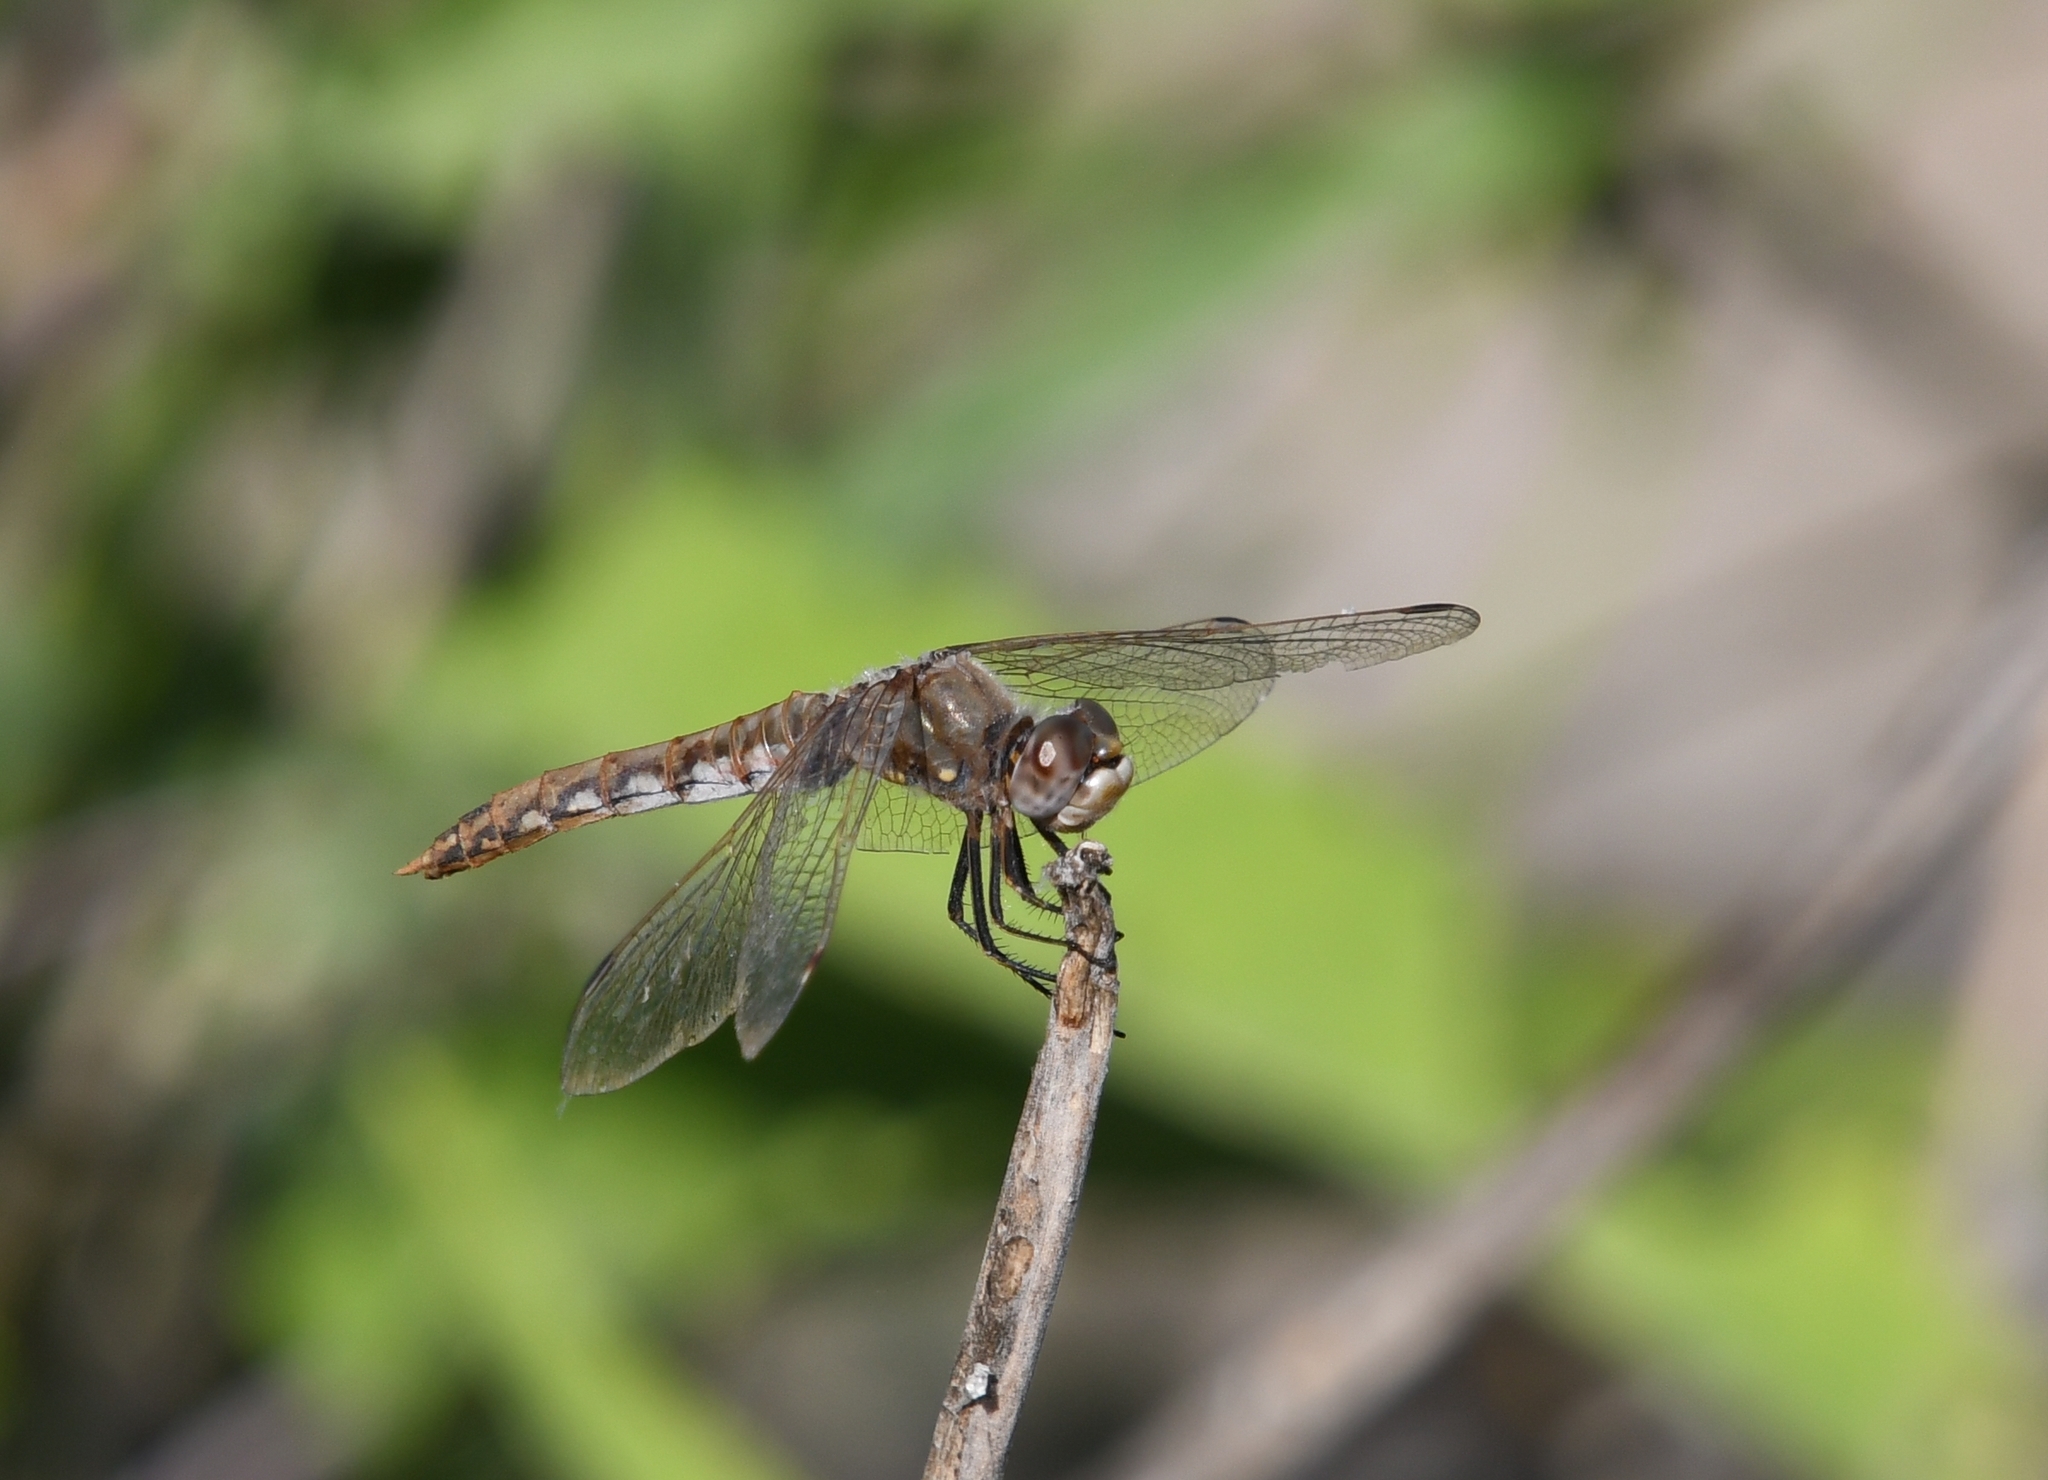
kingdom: Animalia
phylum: Arthropoda
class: Insecta
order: Odonata
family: Libellulidae
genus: Sympetrum
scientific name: Sympetrum corruptum
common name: Variegated meadowhawk
